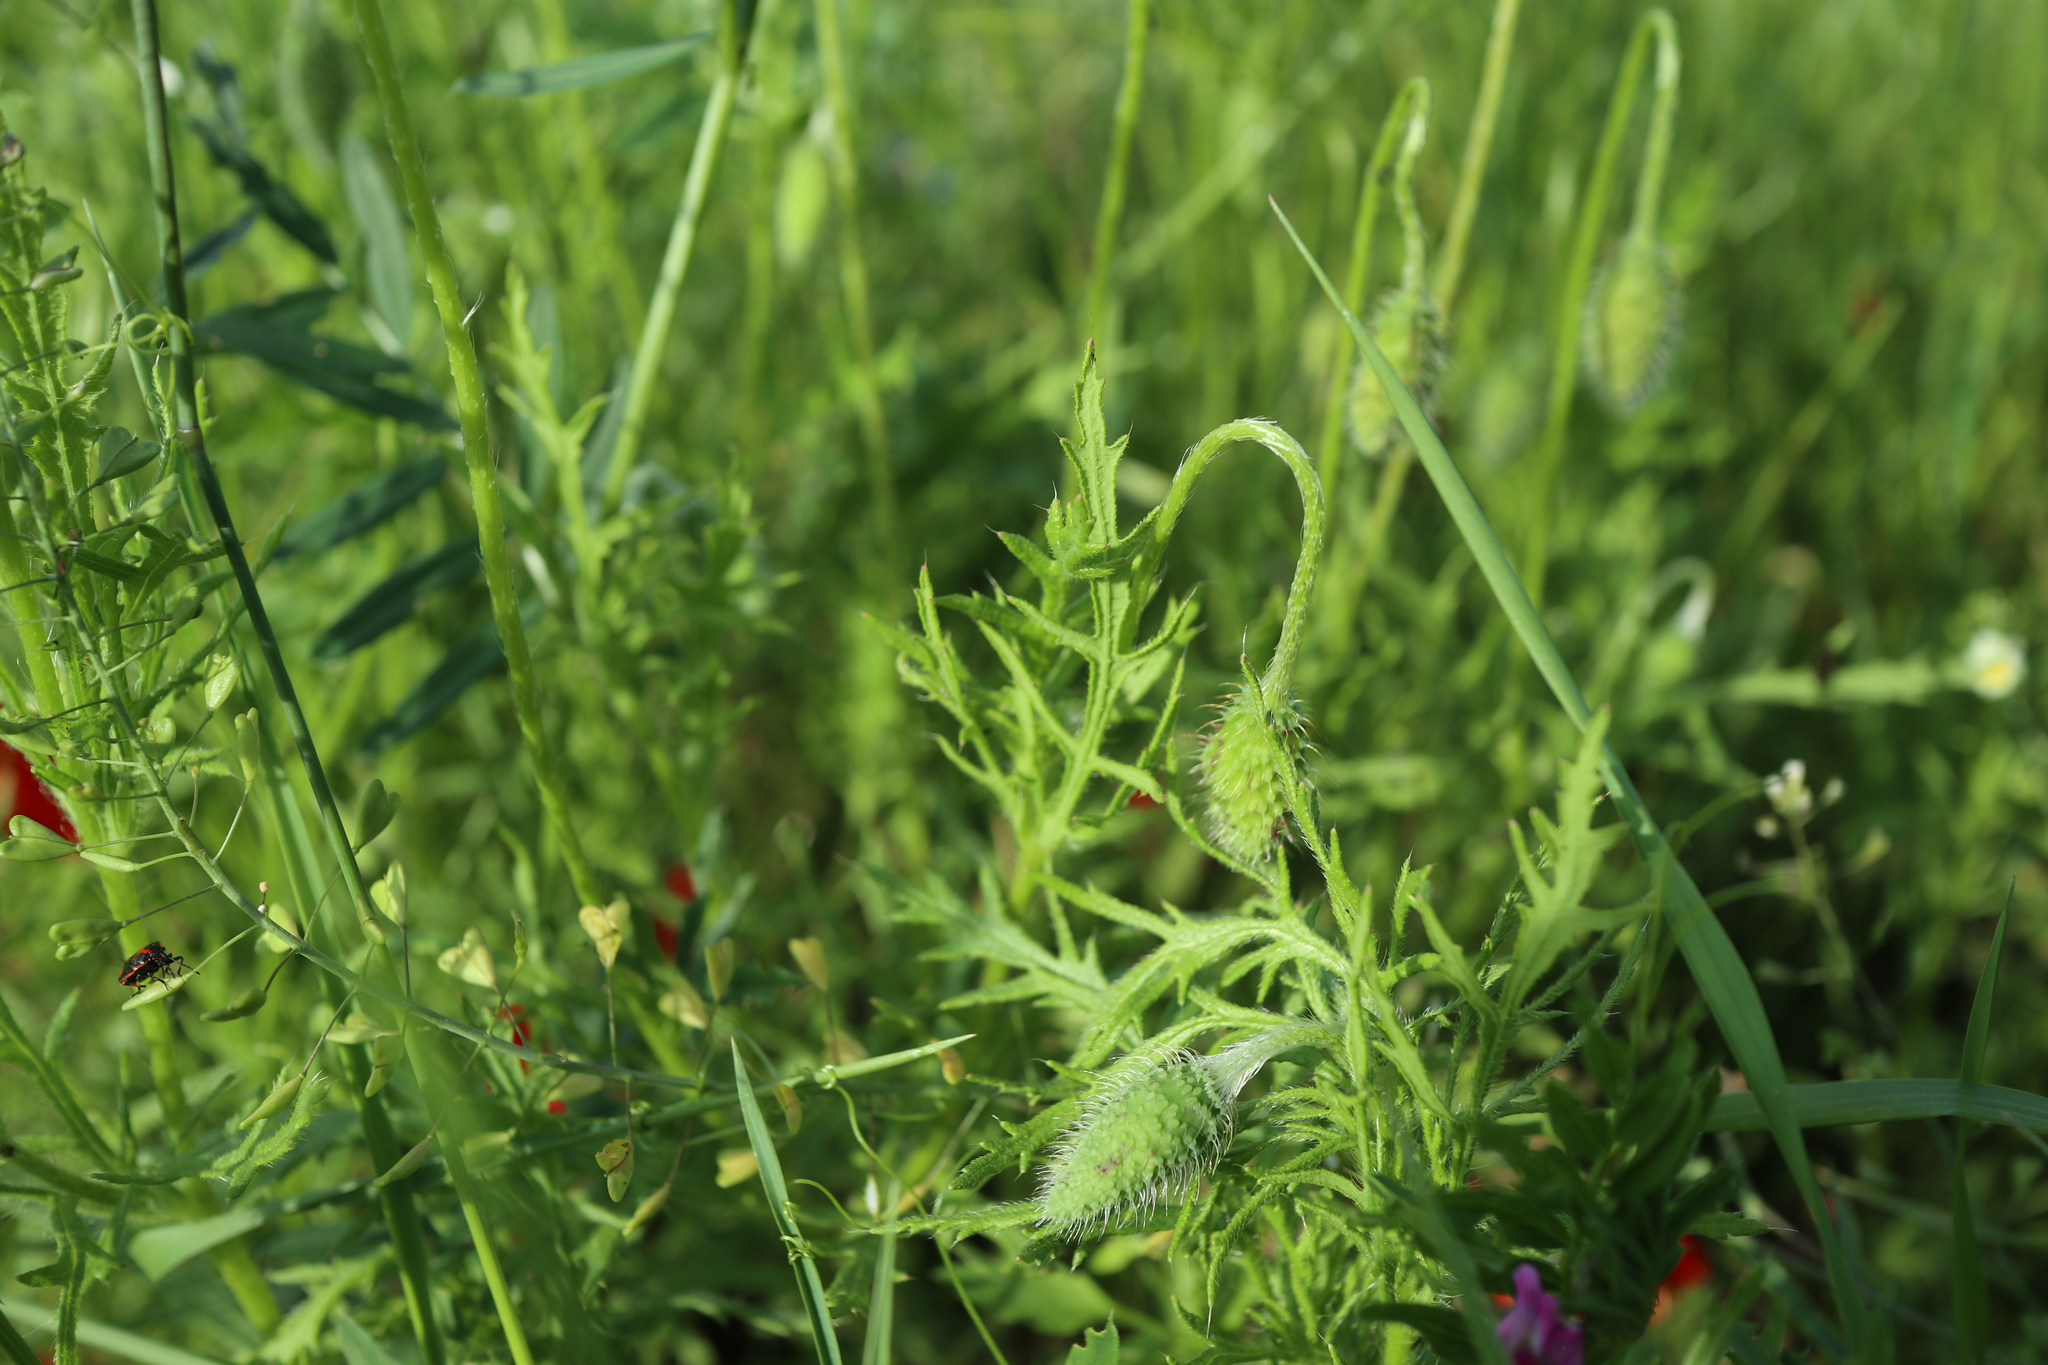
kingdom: Plantae
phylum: Tracheophyta
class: Magnoliopsida
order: Ranunculales
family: Papaveraceae
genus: Papaver
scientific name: Papaver rhoeas
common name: Corn poppy
